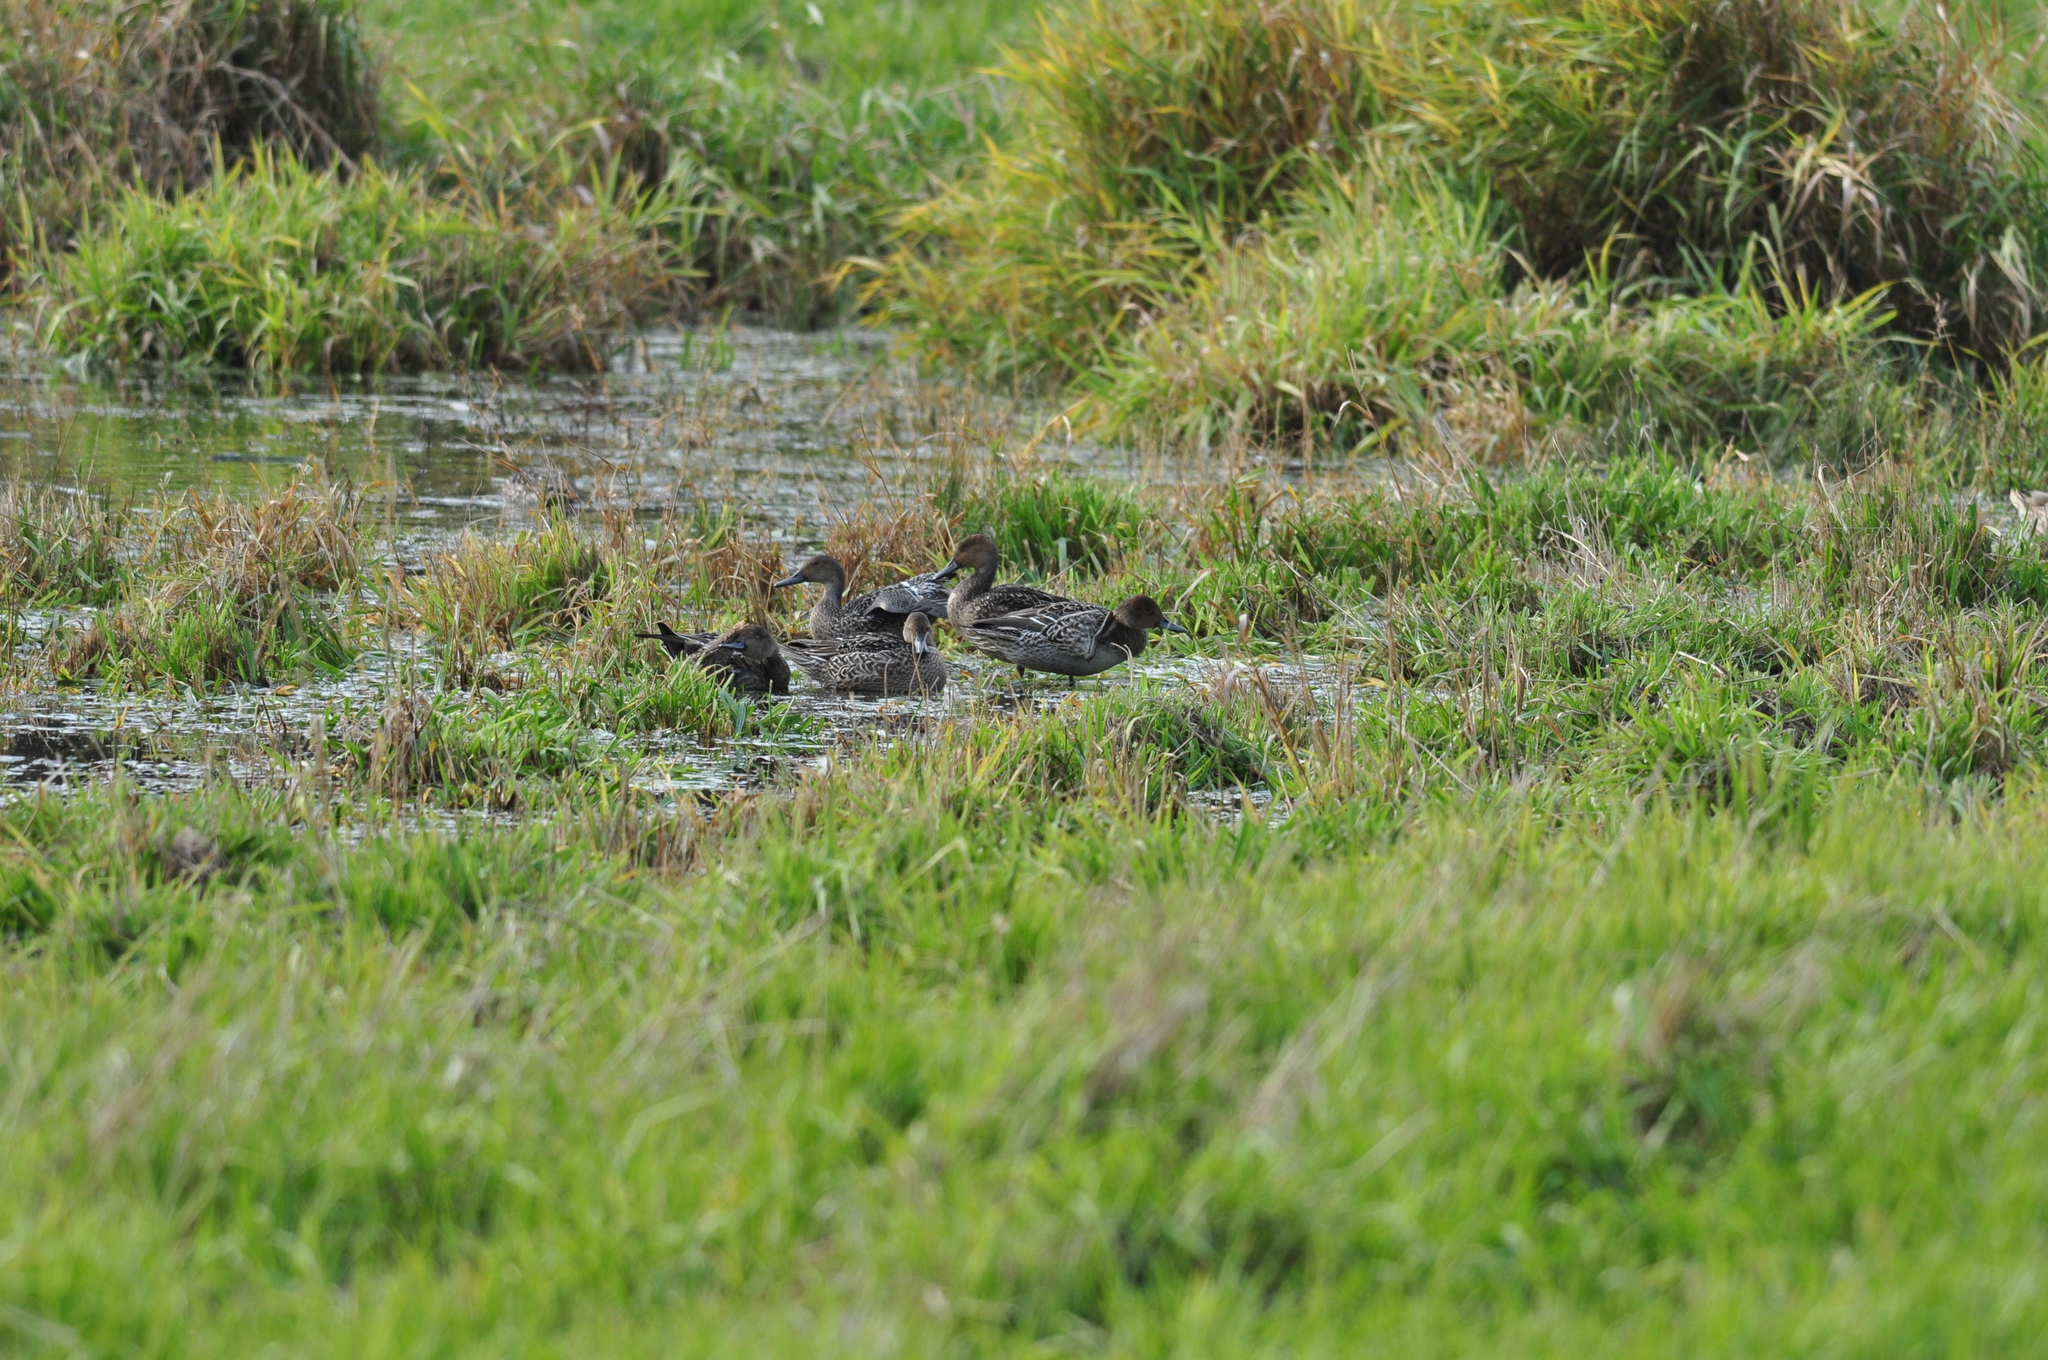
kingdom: Animalia
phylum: Chordata
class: Aves
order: Anseriformes
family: Anatidae
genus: Anas
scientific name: Anas acuta
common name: Northern pintail
